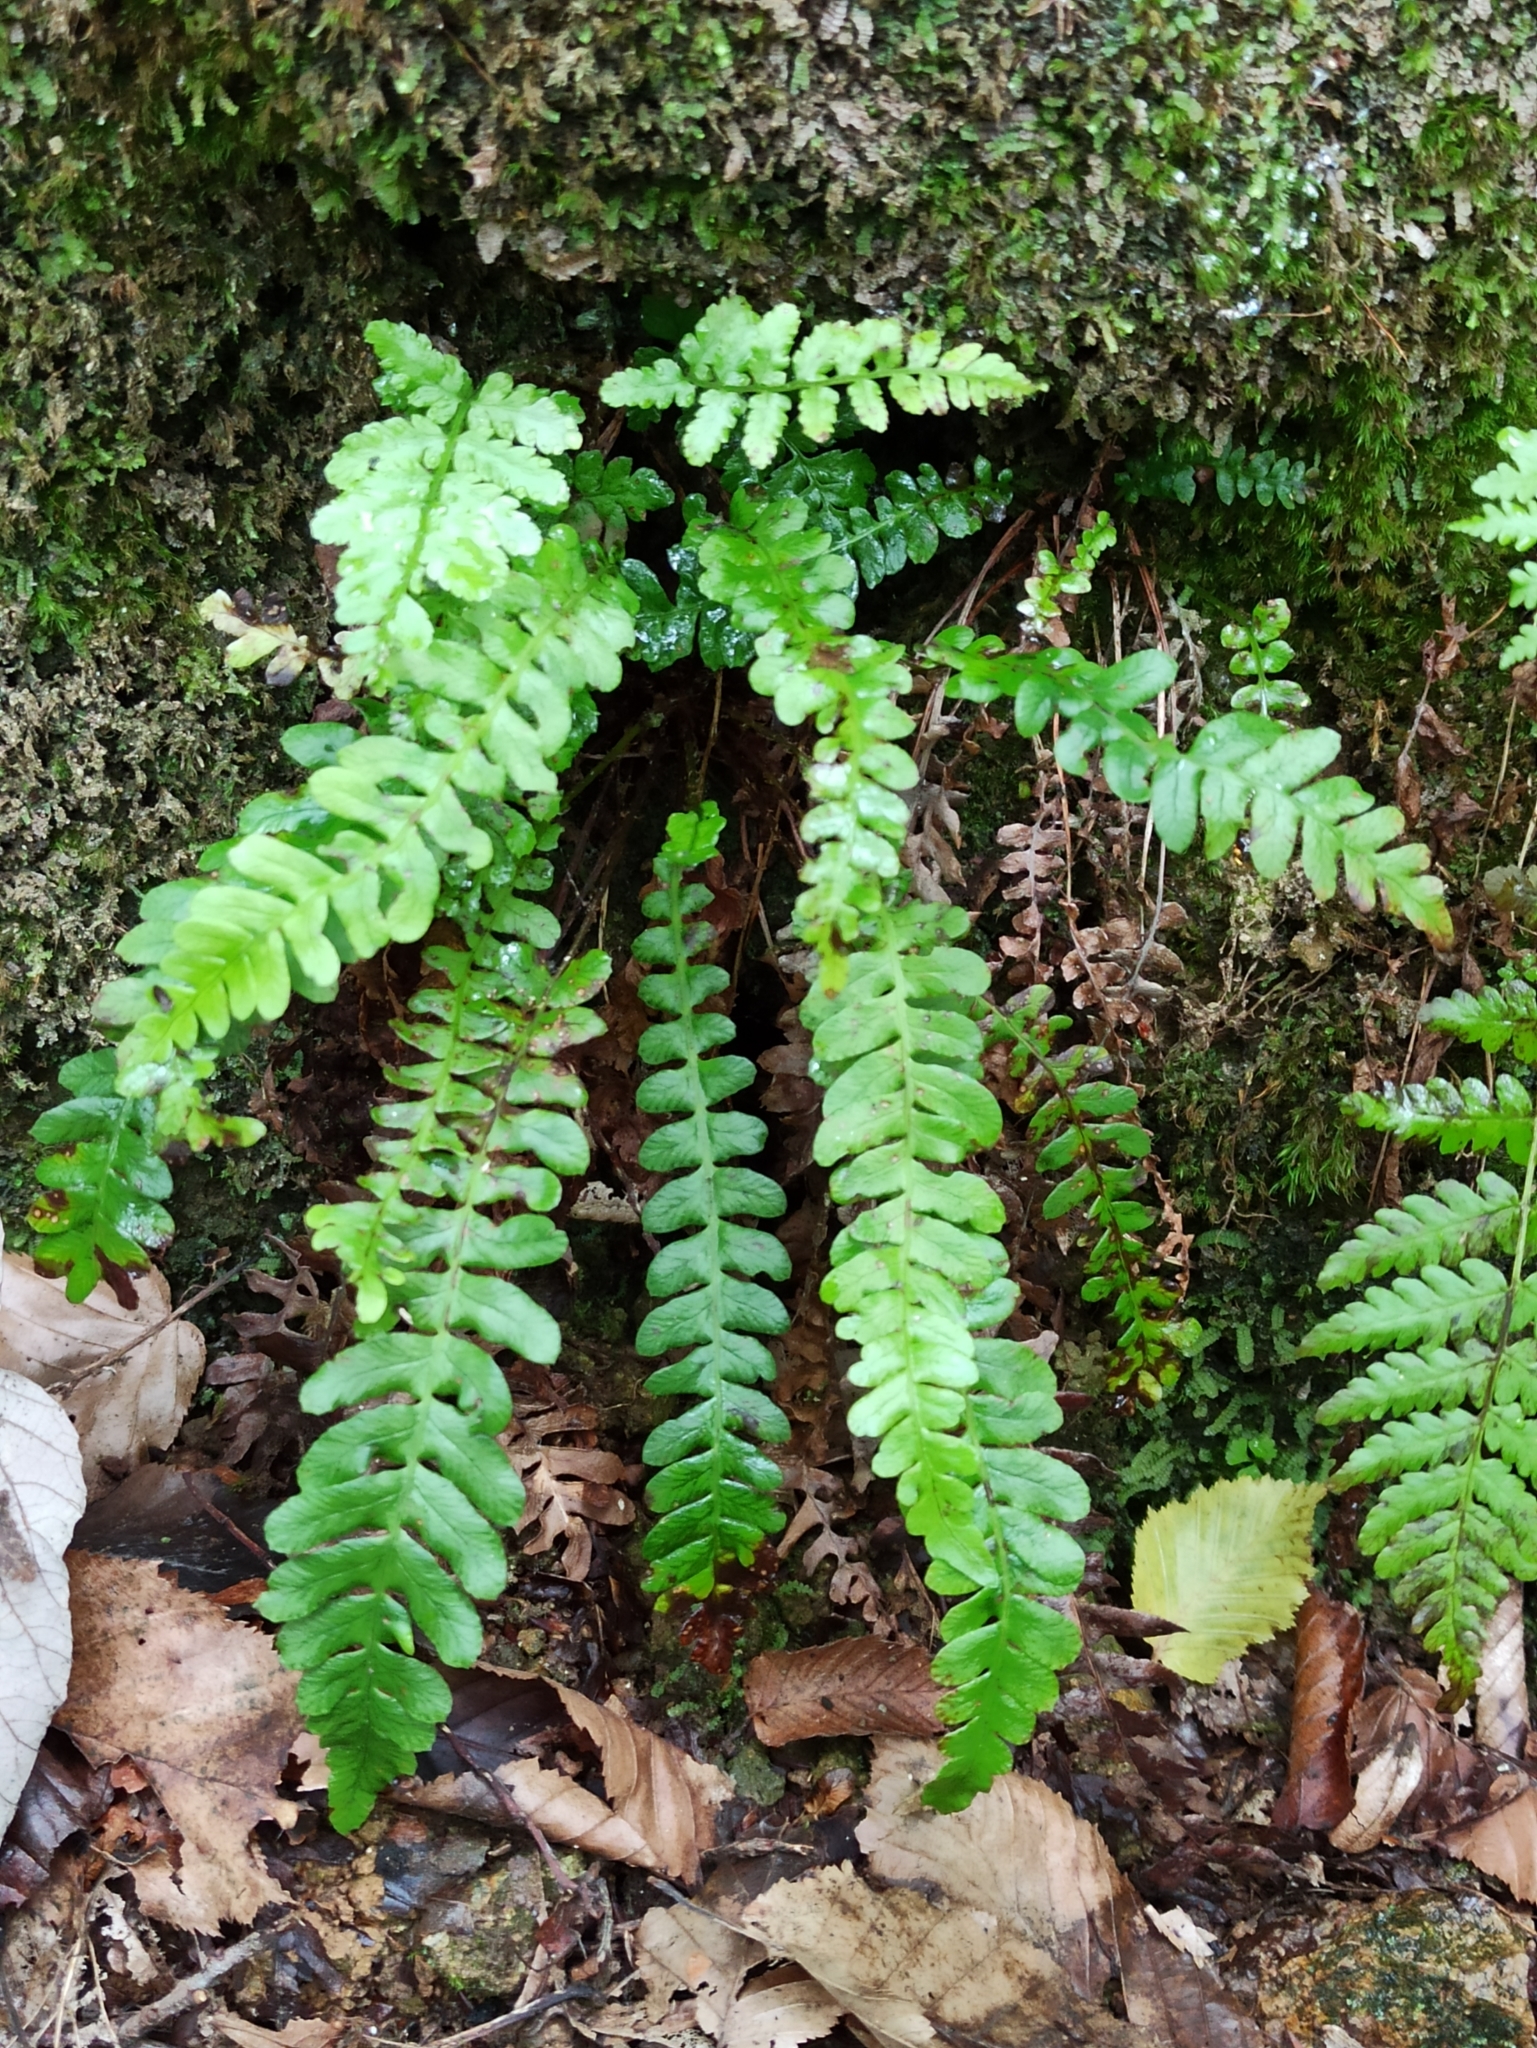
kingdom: Plantae
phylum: Tracheophyta
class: Polypodiopsida
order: Polypodiales
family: Blechnaceae
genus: Struthiopteris
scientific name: Struthiopteris spicant
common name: Deer fern
